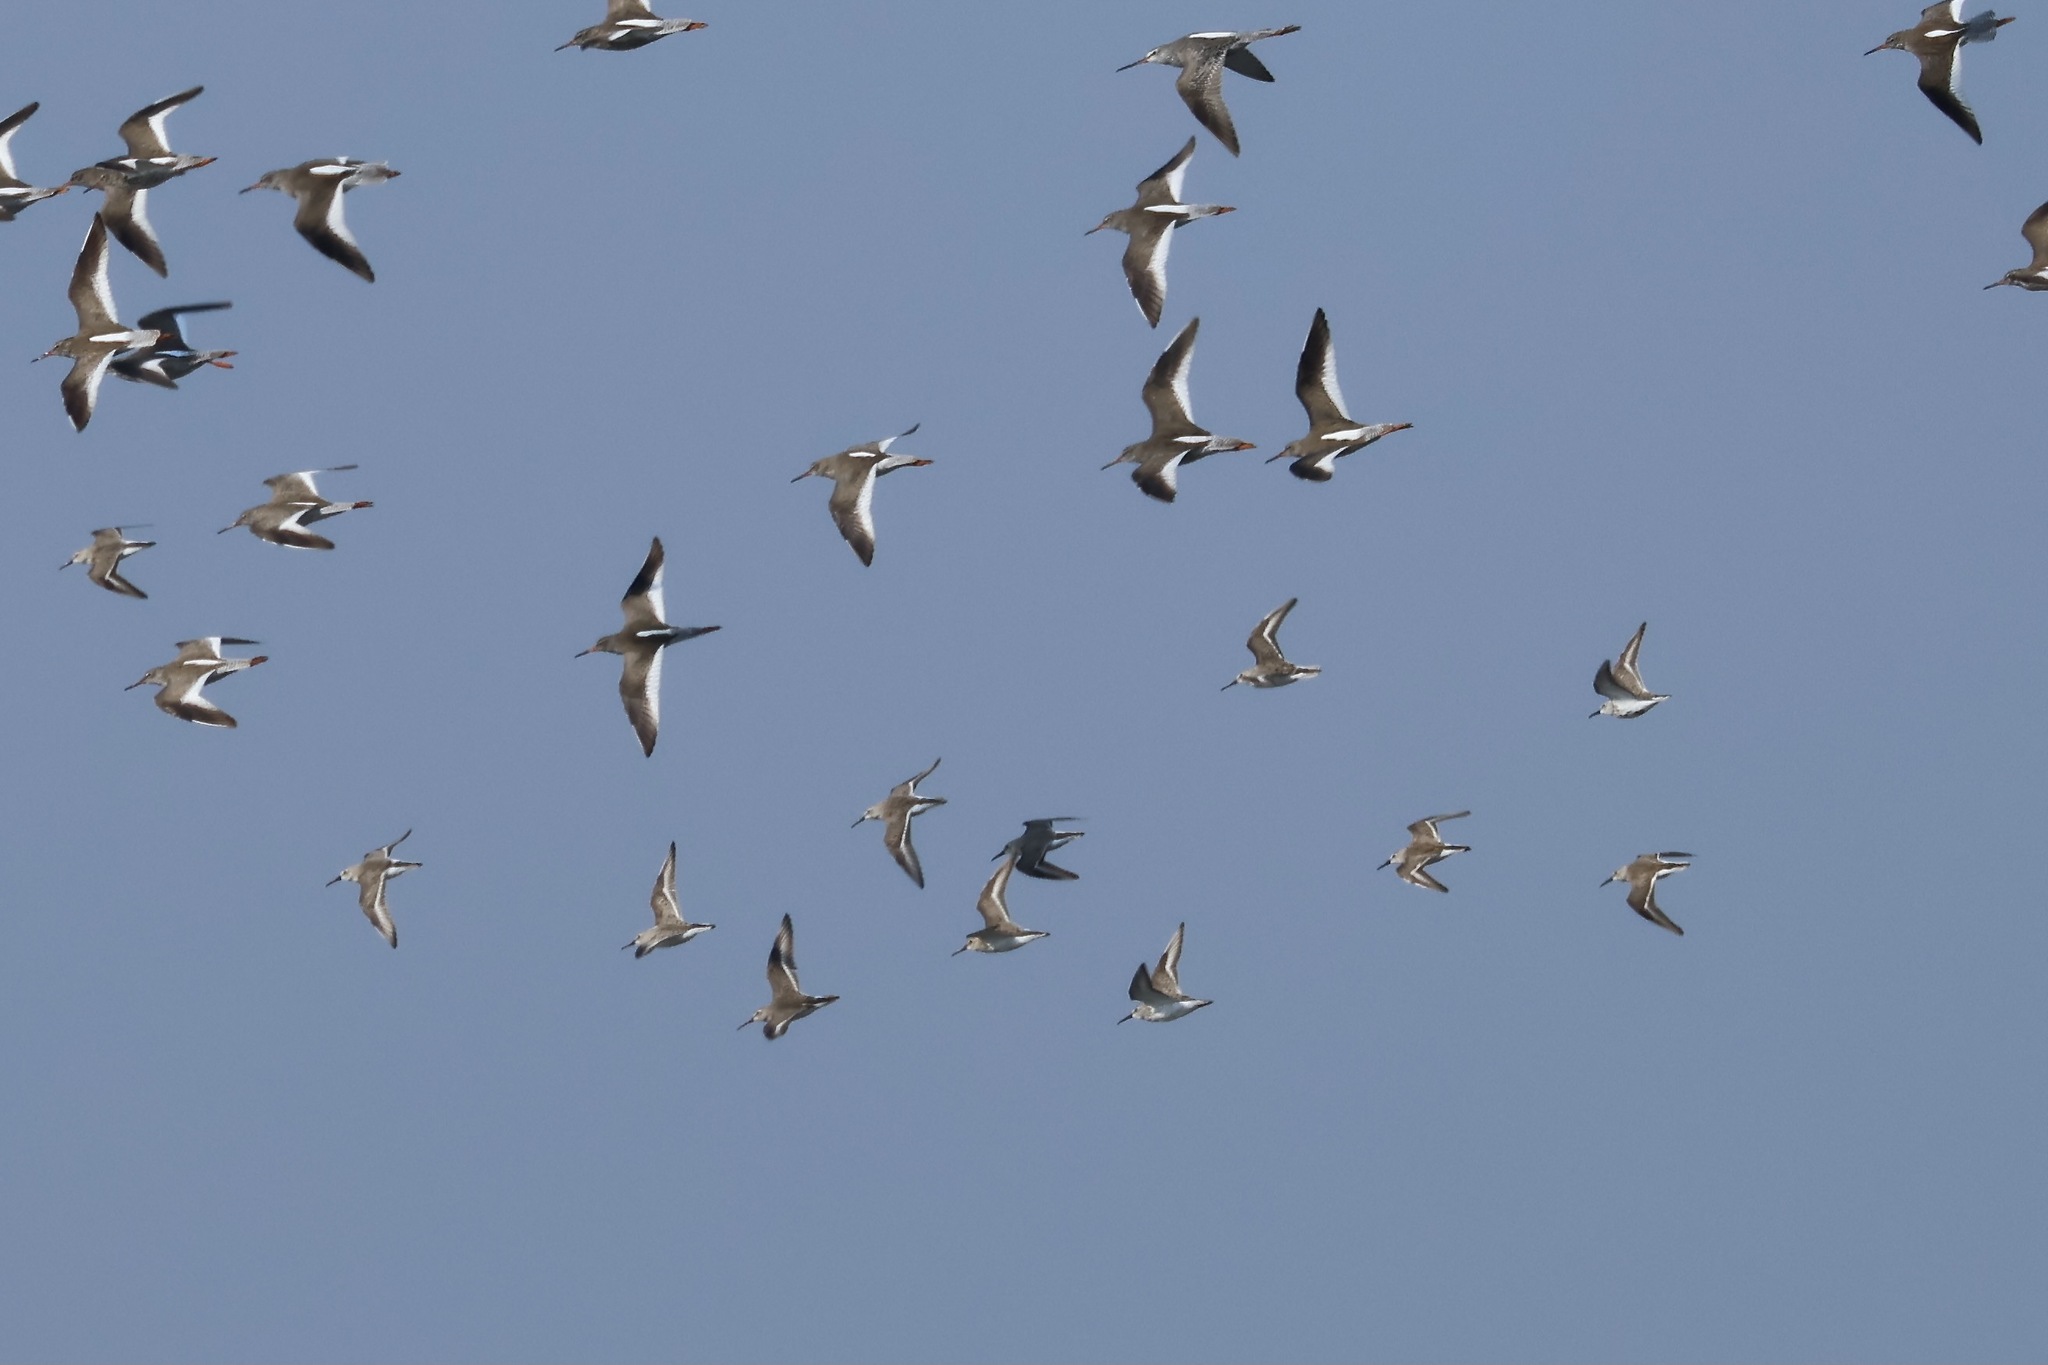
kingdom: Animalia
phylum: Chordata
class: Aves
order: Charadriiformes
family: Scolopacidae
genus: Calidris
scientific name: Calidris alpina
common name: Dunlin
